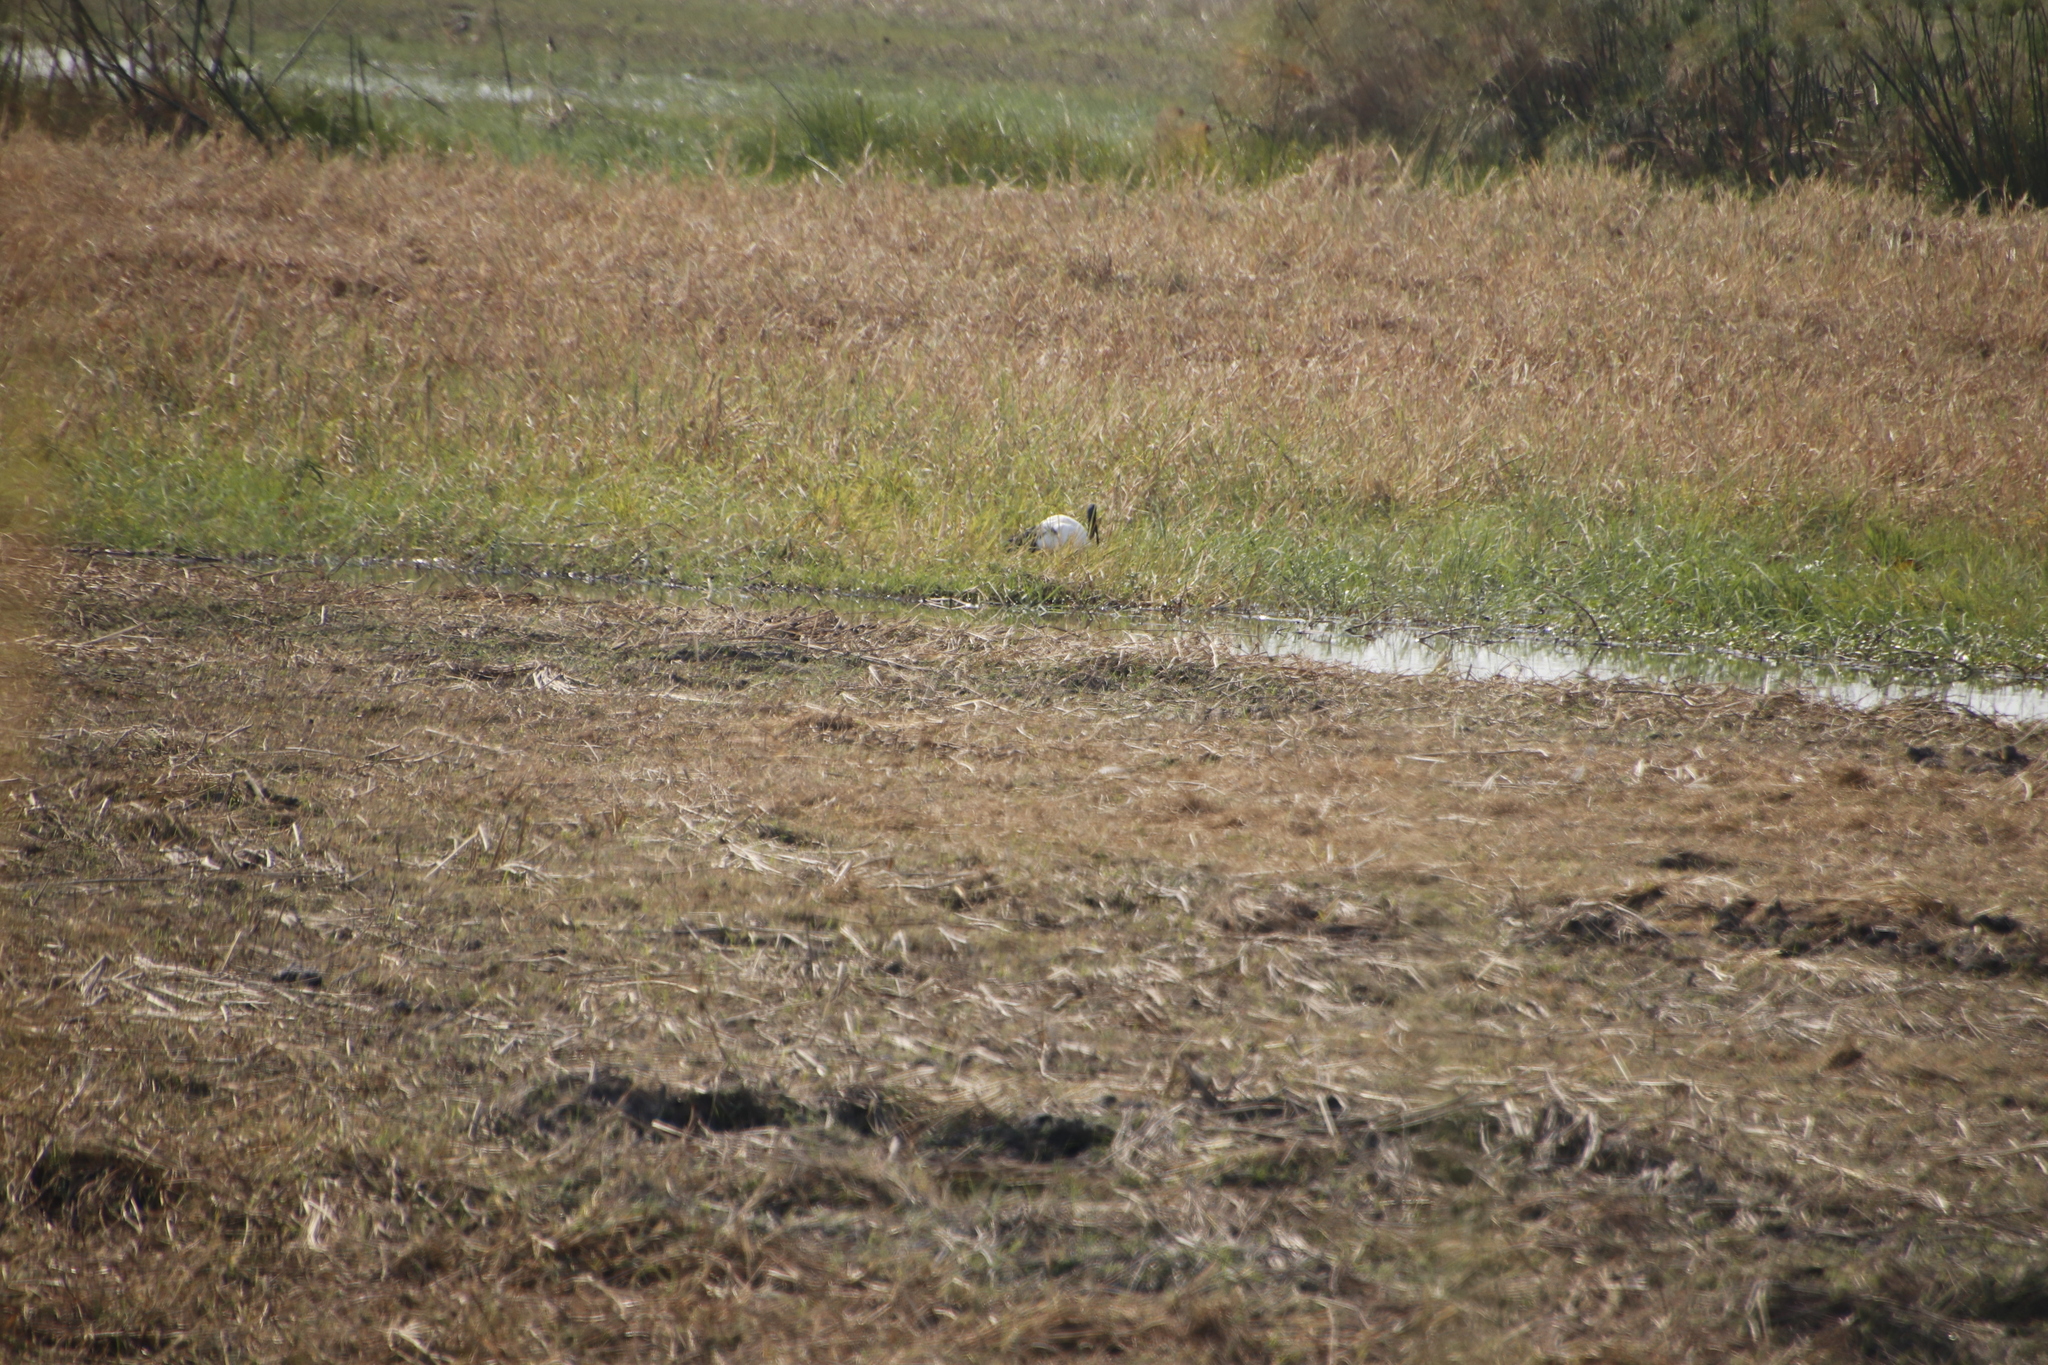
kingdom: Animalia
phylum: Chordata
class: Aves
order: Pelecaniformes
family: Threskiornithidae
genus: Threskiornis
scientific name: Threskiornis aethiopicus
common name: Sacred ibis
